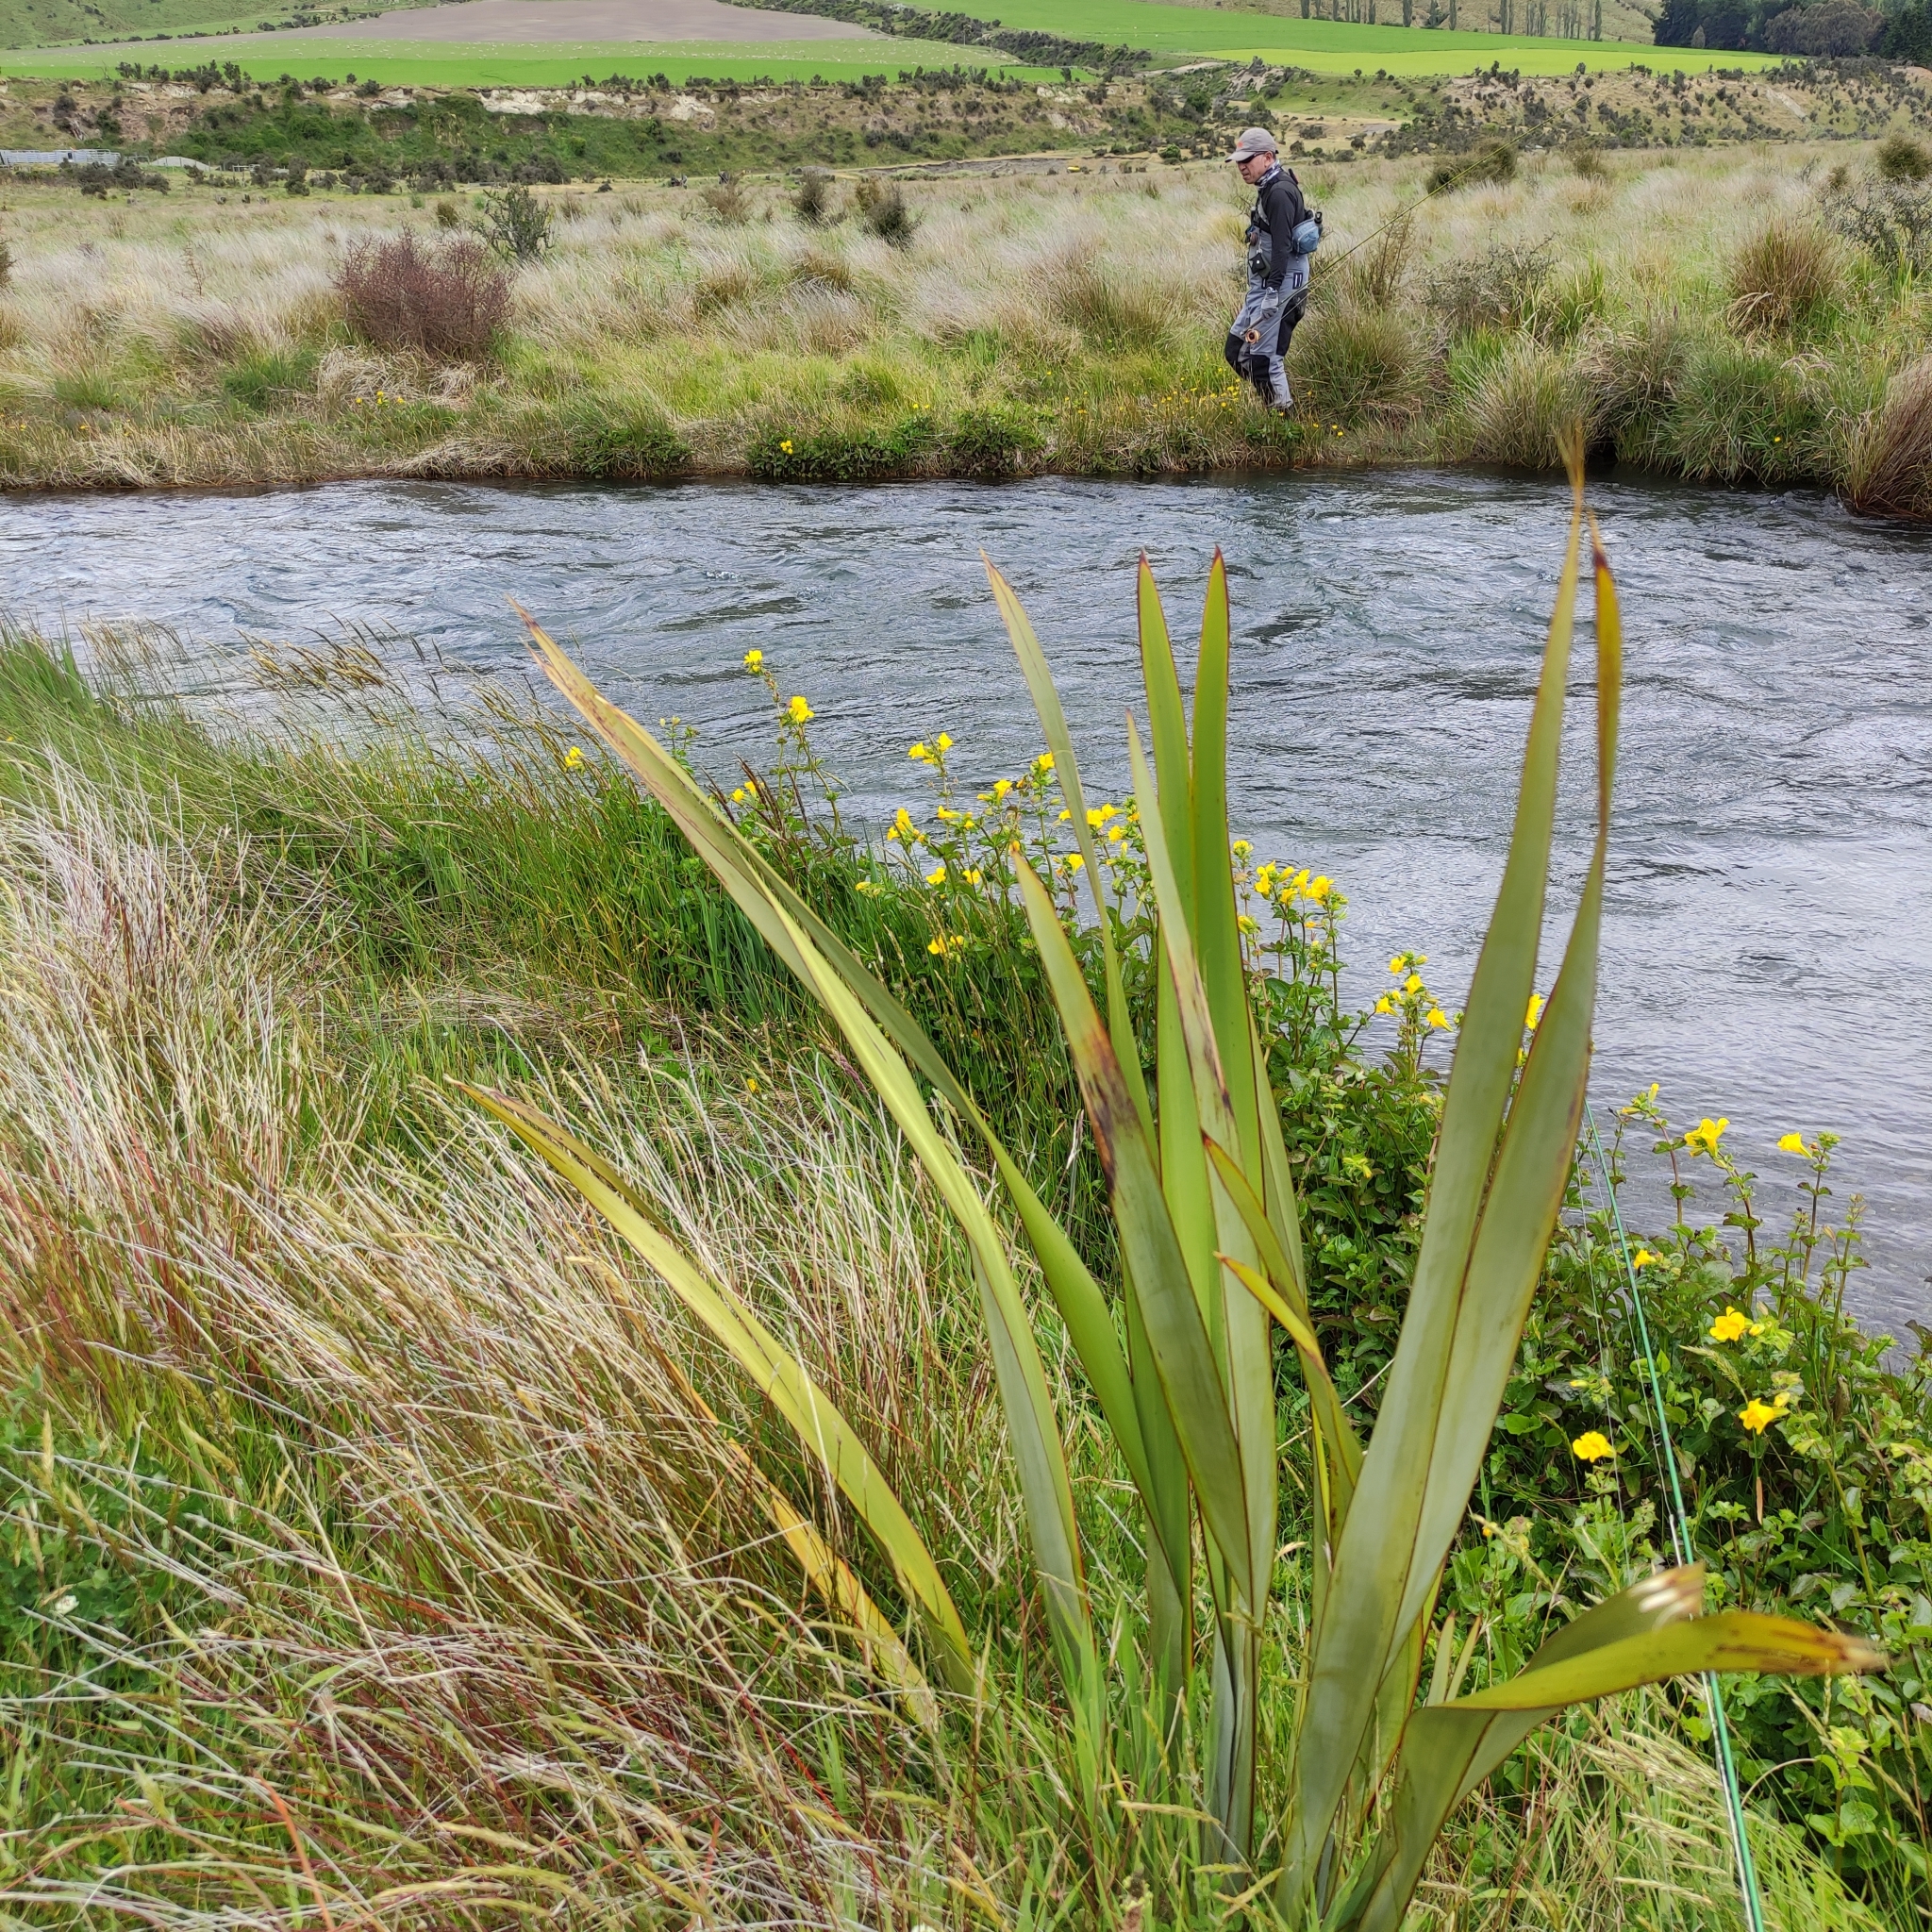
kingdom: Plantae
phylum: Tracheophyta
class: Liliopsida
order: Asparagales
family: Asphodelaceae
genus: Phormium
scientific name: Phormium tenax
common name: New zealand flax
